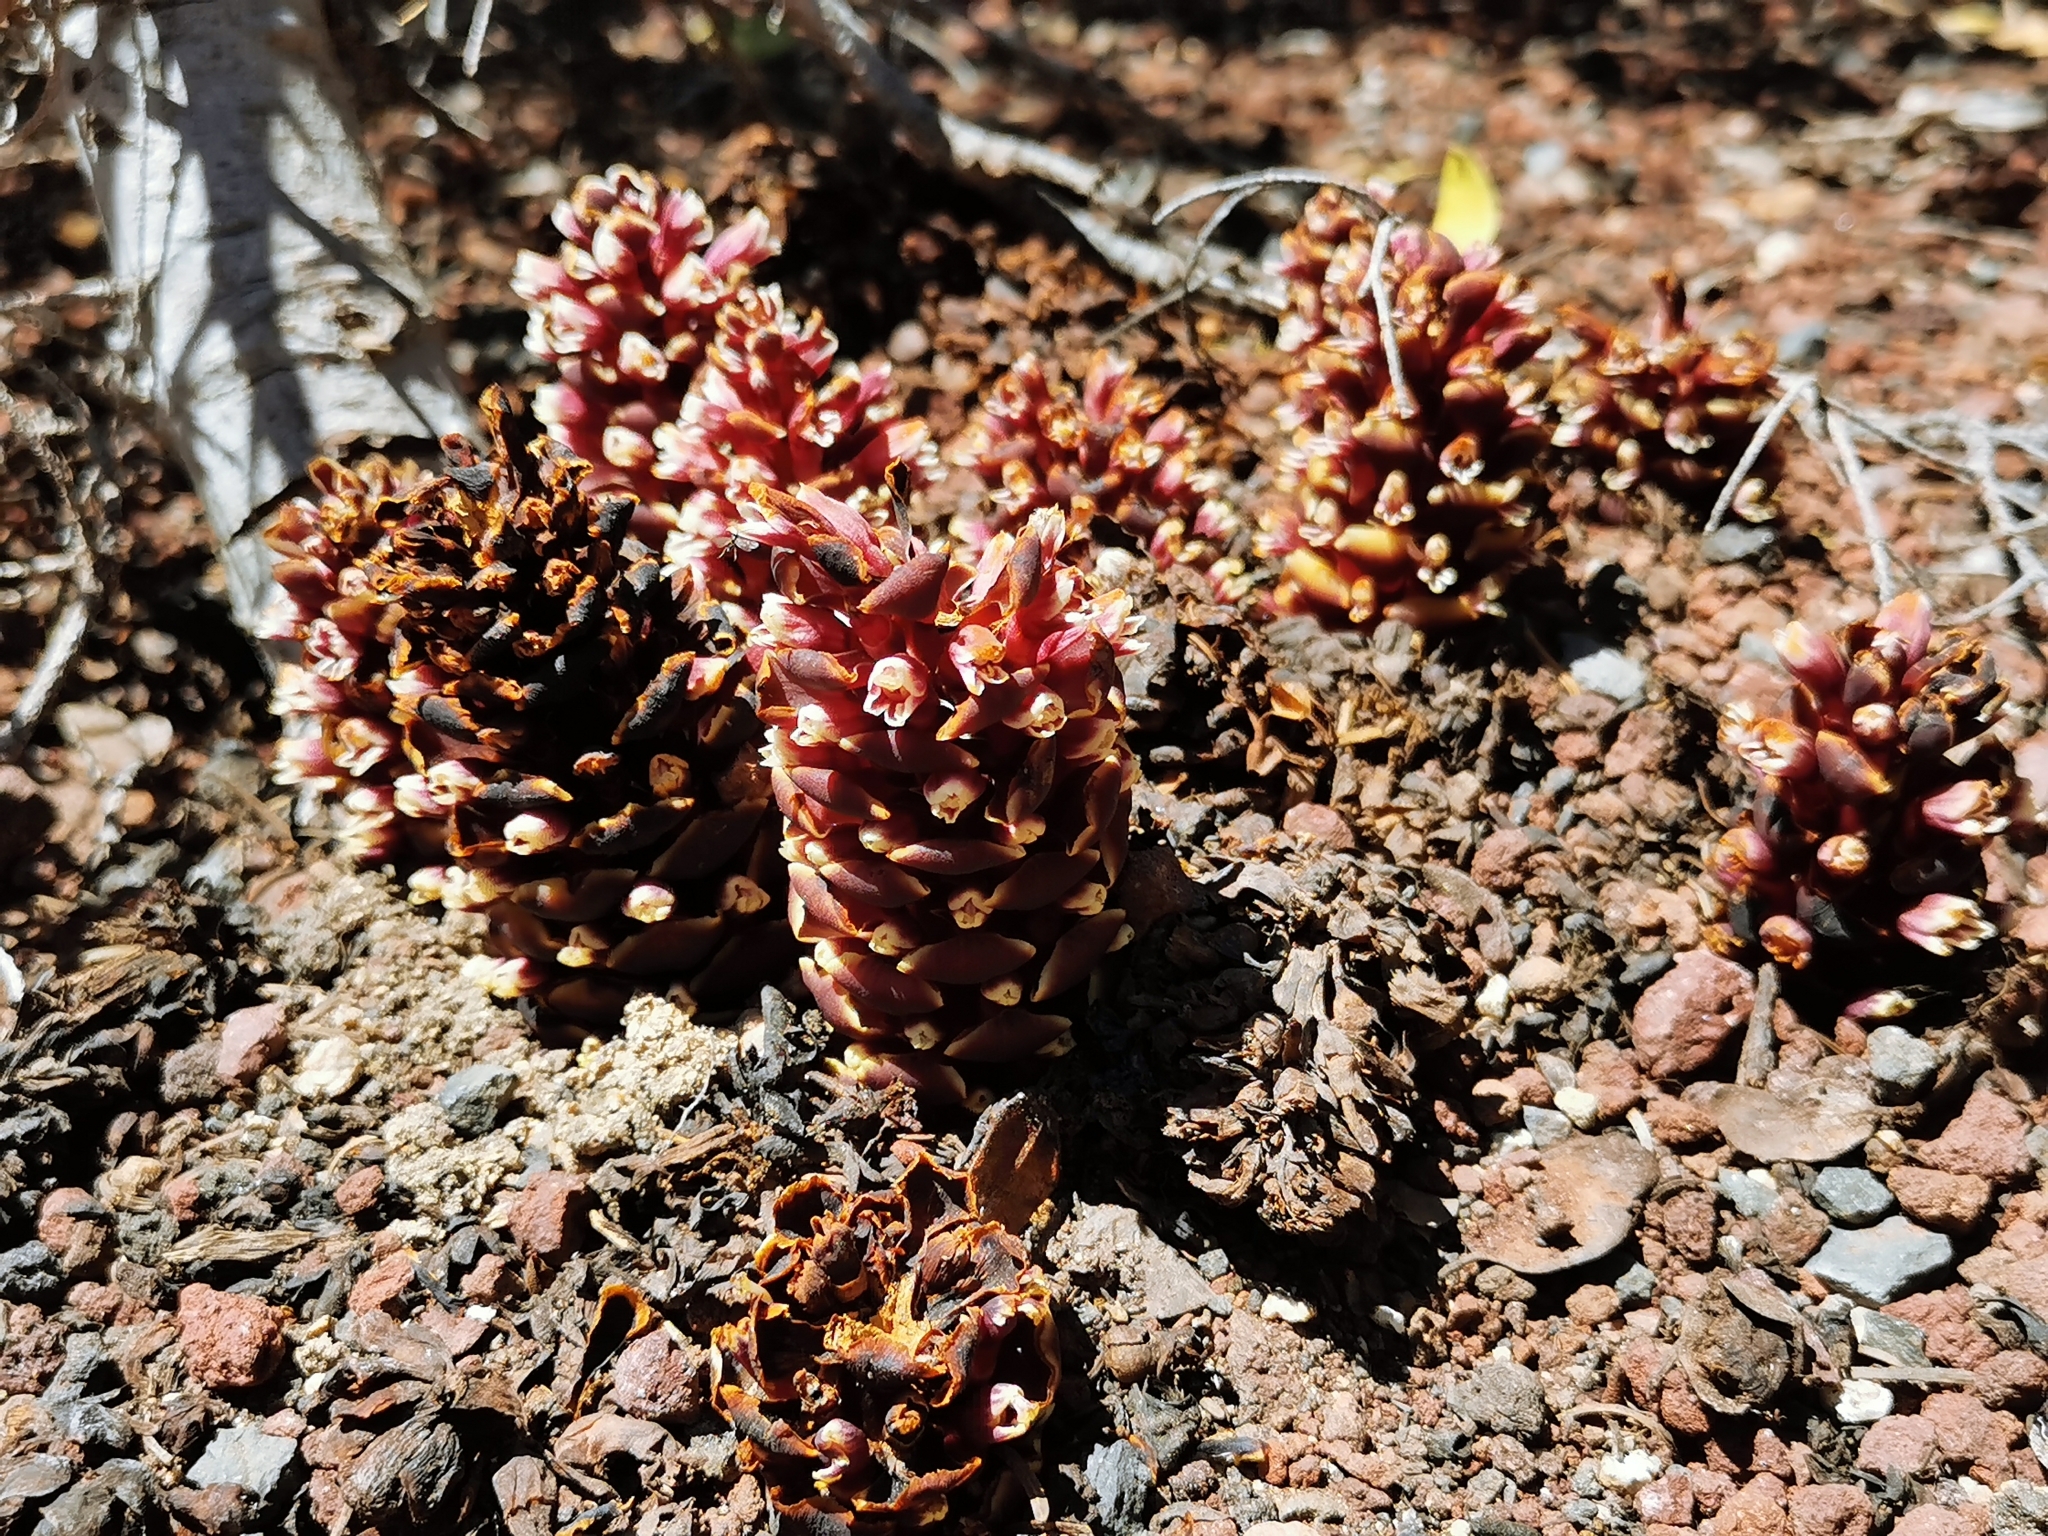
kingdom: Plantae
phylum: Tracheophyta
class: Magnoliopsida
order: Lamiales
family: Orobanchaceae
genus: Kopsiopsis
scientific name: Kopsiopsis strobilacea
